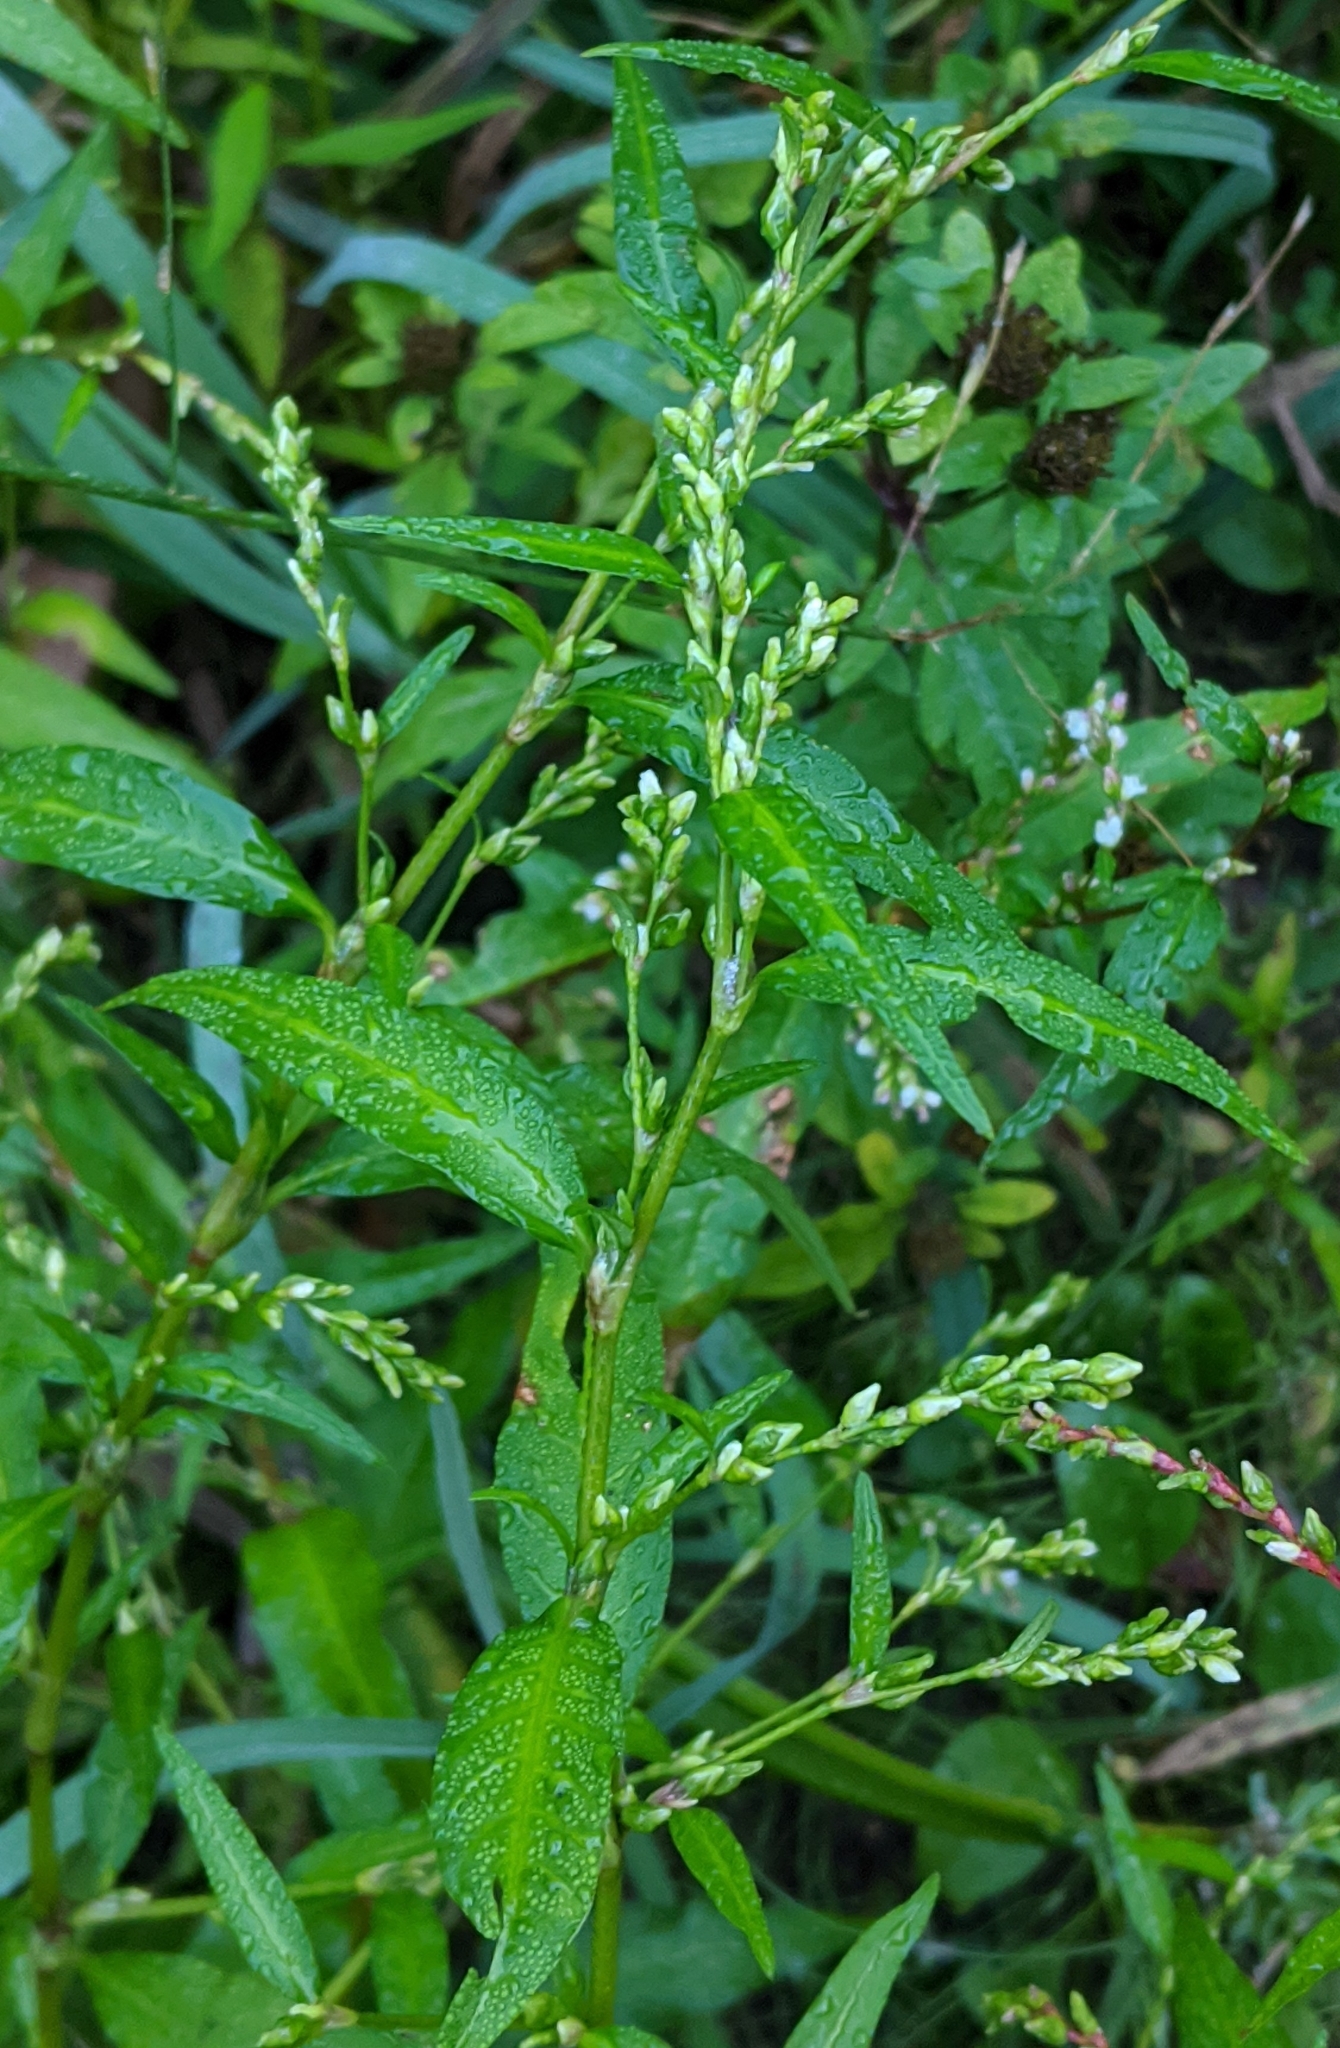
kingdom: Plantae
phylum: Tracheophyta
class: Magnoliopsida
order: Caryophyllales
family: Polygonaceae
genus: Persicaria
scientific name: Persicaria hydropiper
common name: Water-pepper
